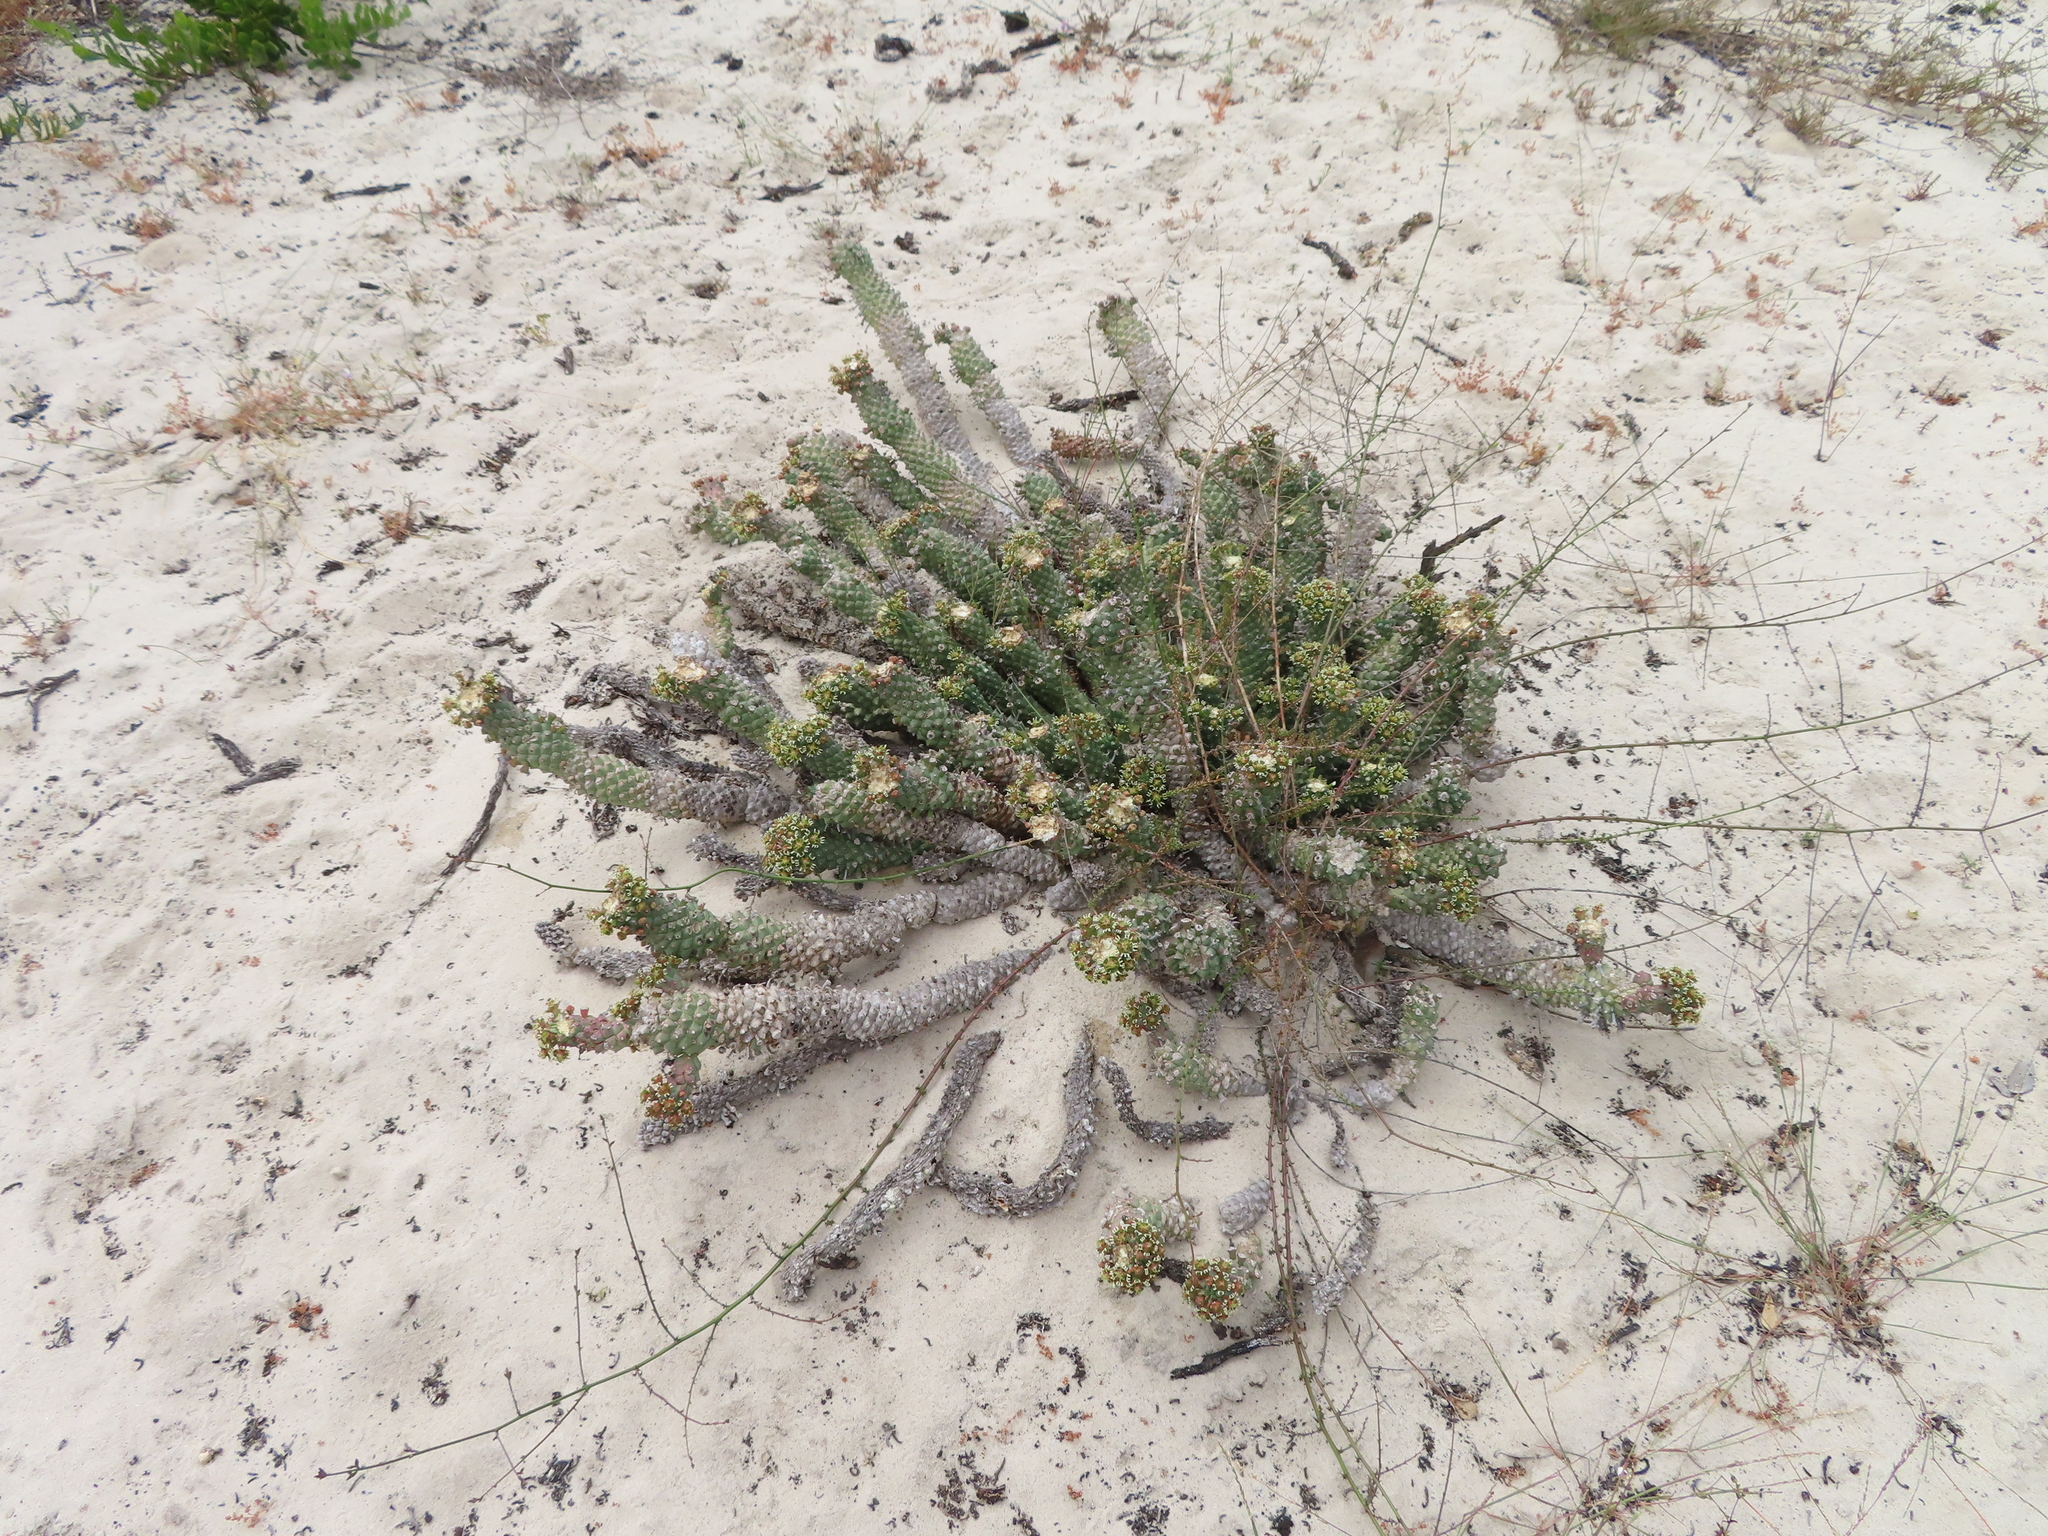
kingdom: Plantae
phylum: Tracheophyta
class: Magnoliopsida
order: Malpighiales
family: Euphorbiaceae
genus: Euphorbia
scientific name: Euphorbia caput-medusae
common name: Medusa's-head
